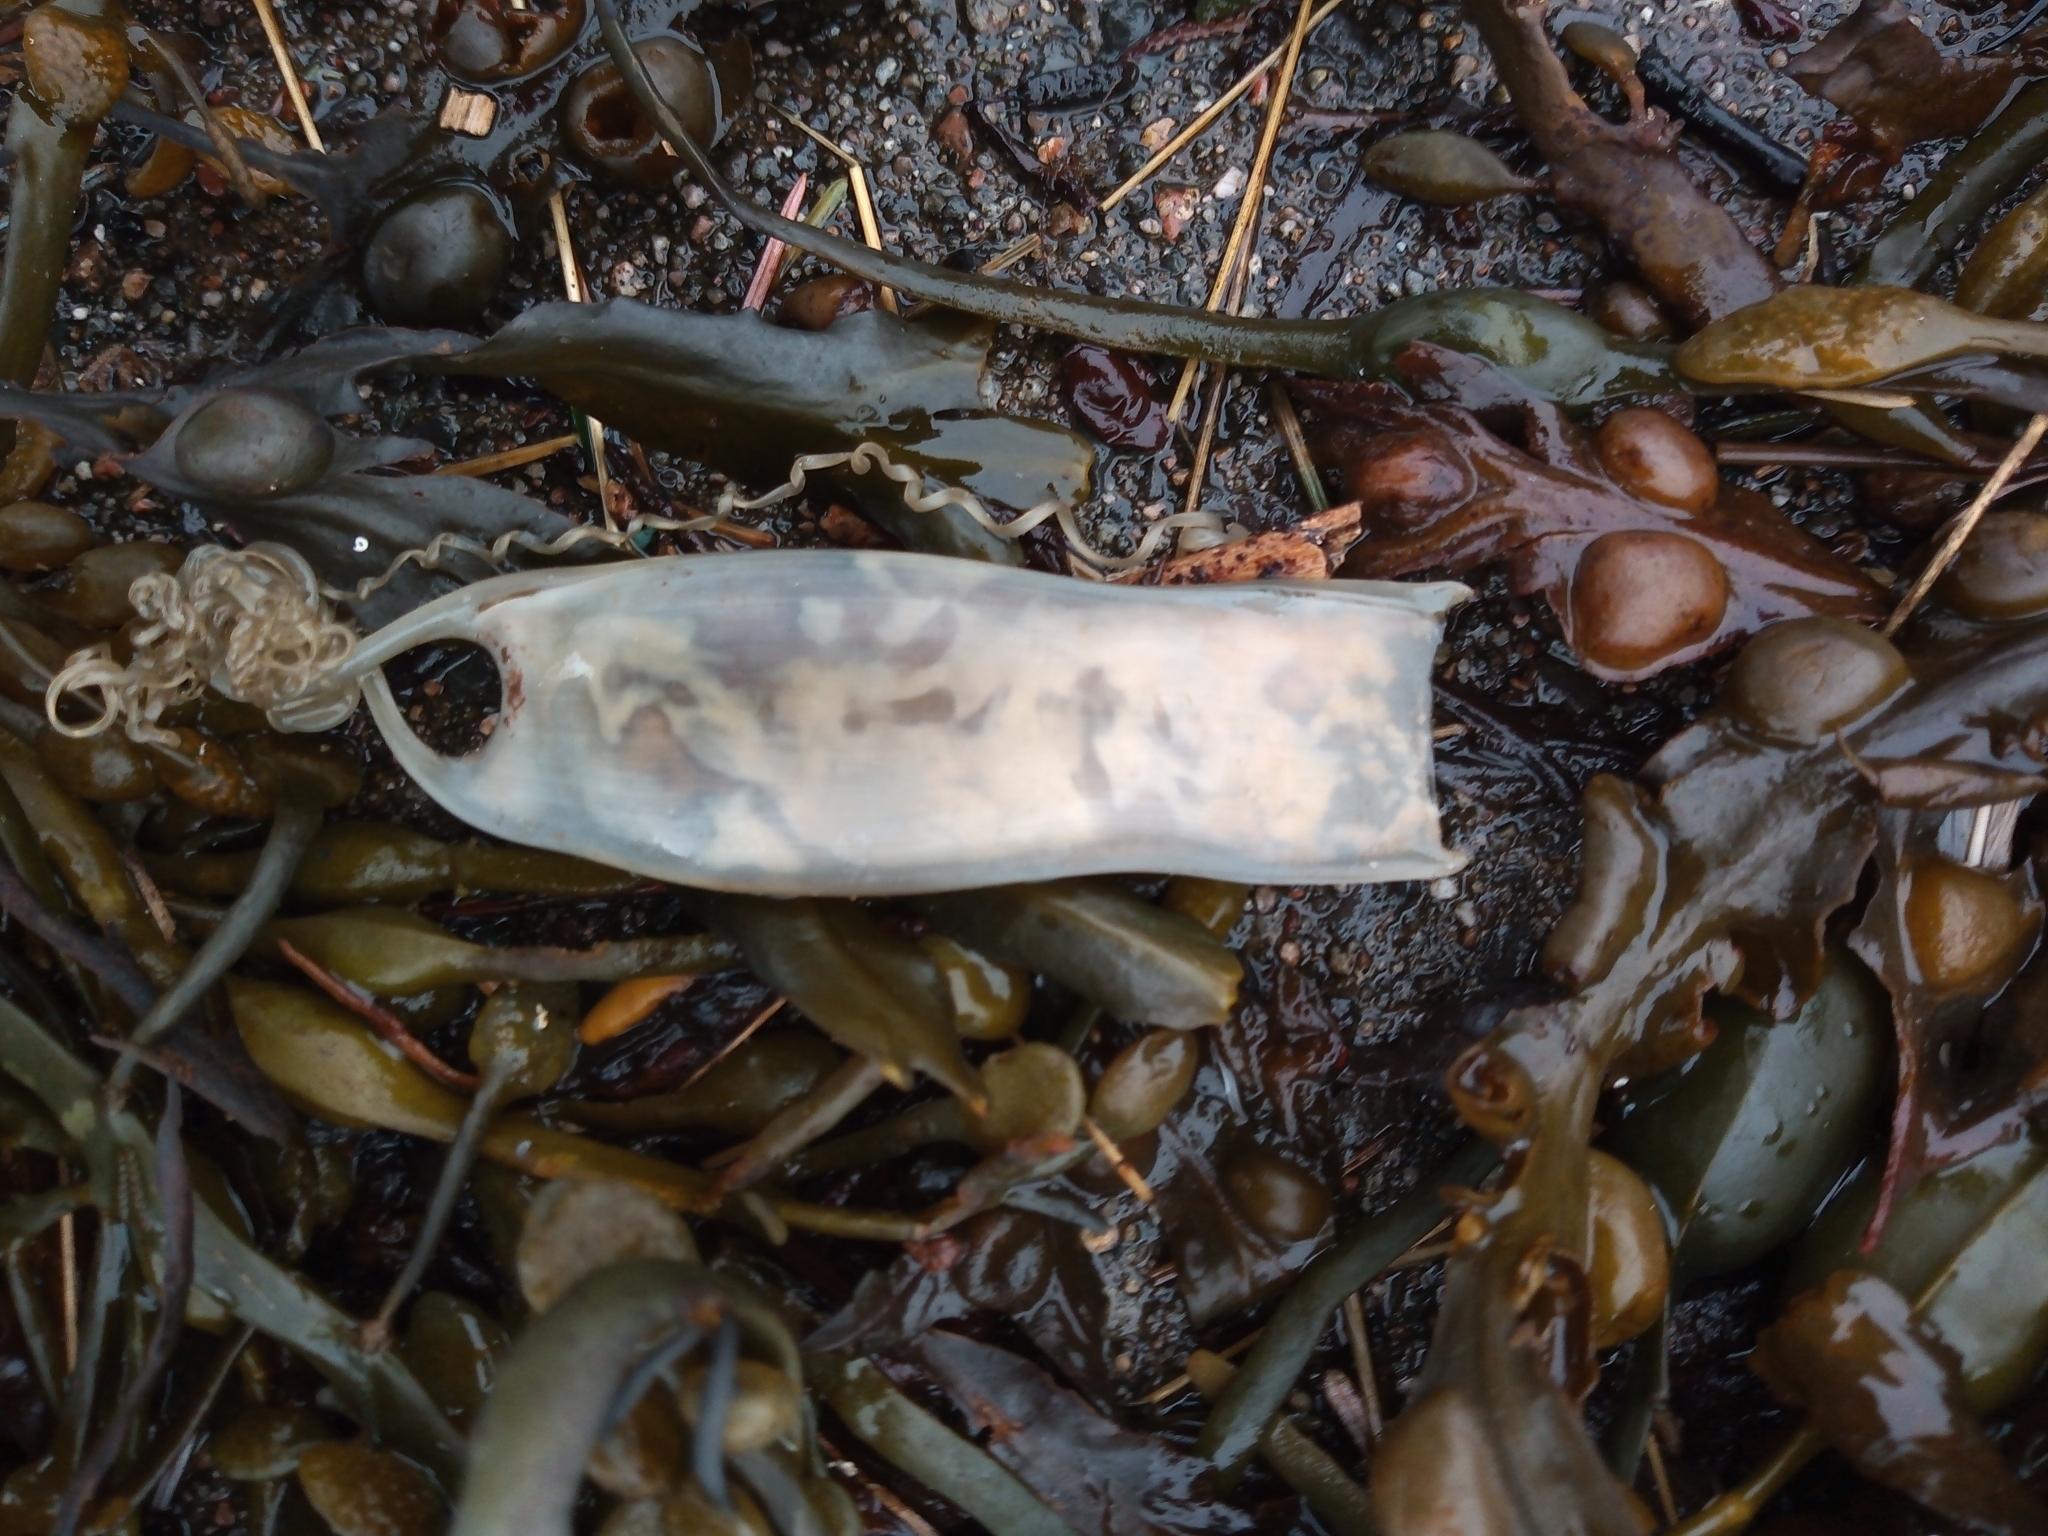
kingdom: Animalia
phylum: Chordata
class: Elasmobranchii
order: Carcharhiniformes
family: Scyliorhinidae
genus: Scyliorhinus
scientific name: Scyliorhinus canicula
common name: Lesser spotted dogfish
